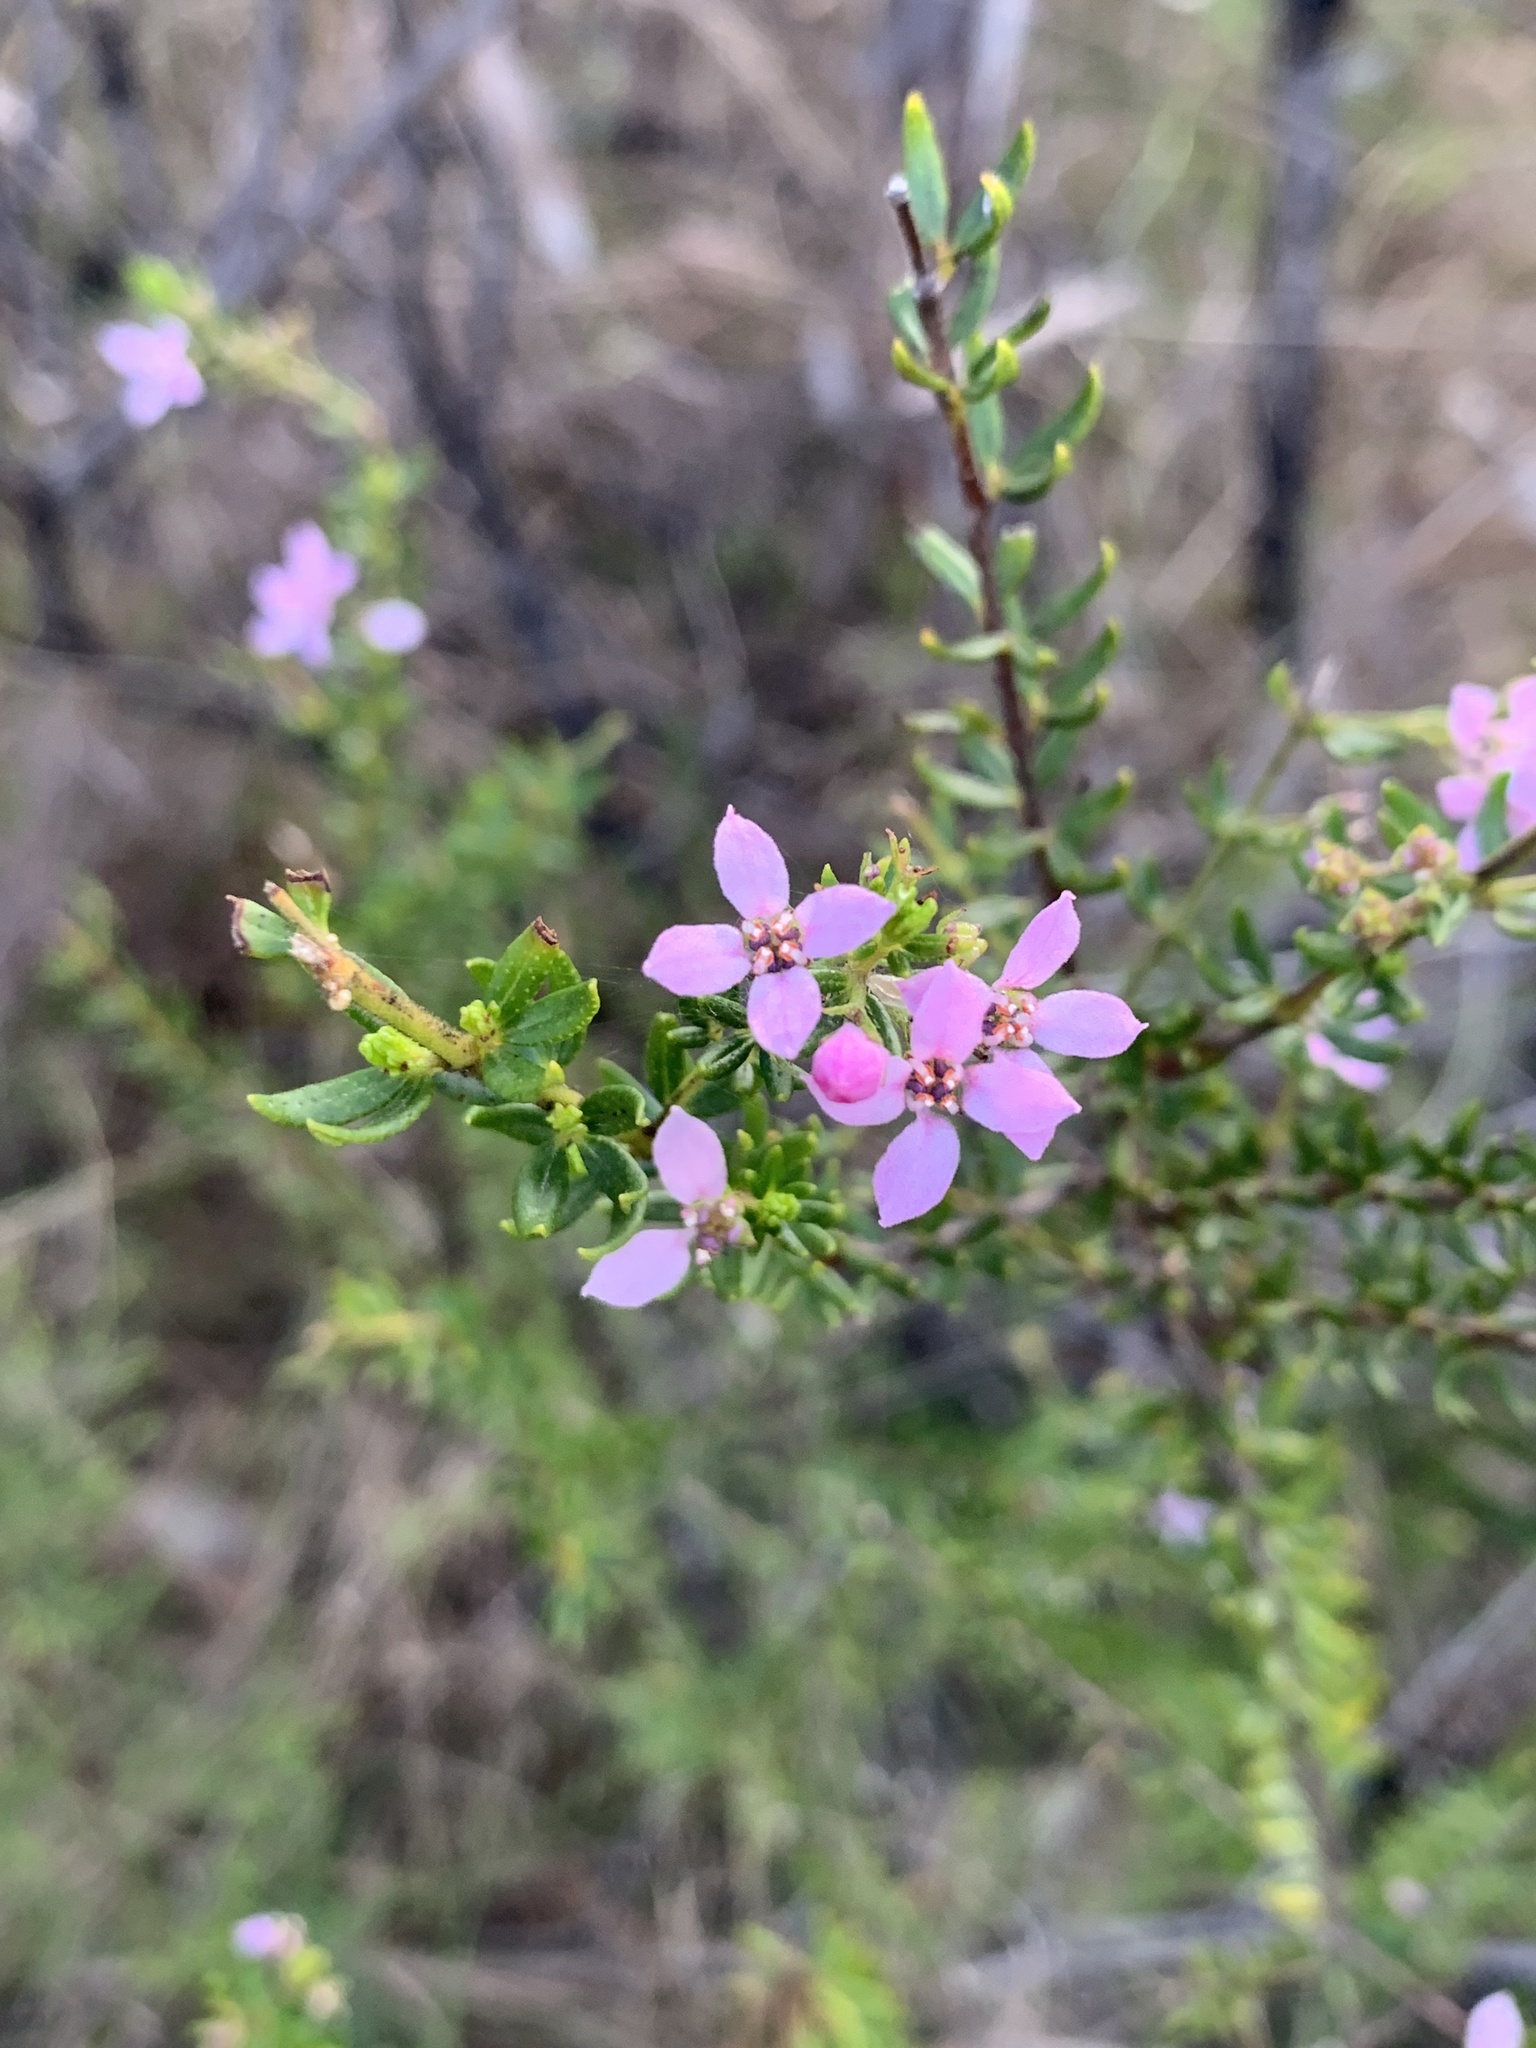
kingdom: Plantae
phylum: Tracheophyta
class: Magnoliopsida
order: Sapindales
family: Rutaceae
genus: Zieria
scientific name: Zieria aspalathoides
